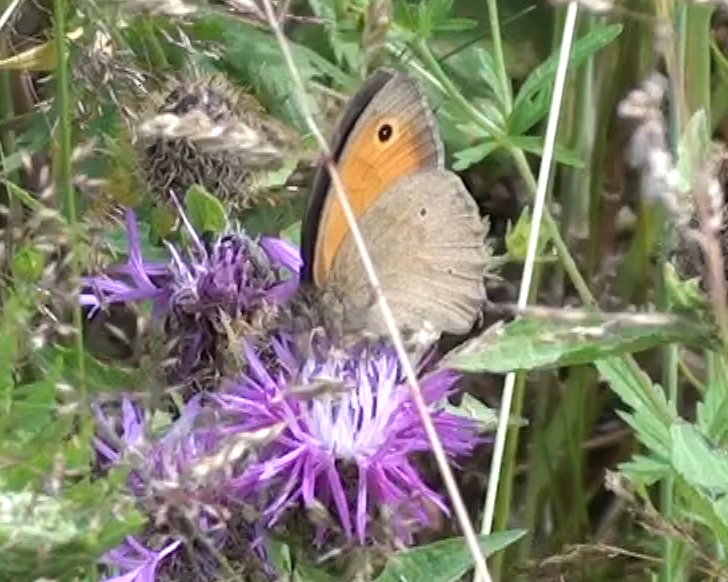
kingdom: Animalia
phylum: Arthropoda
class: Insecta
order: Lepidoptera
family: Nymphalidae
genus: Maniola
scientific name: Maniola jurtina
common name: Meadow brown
